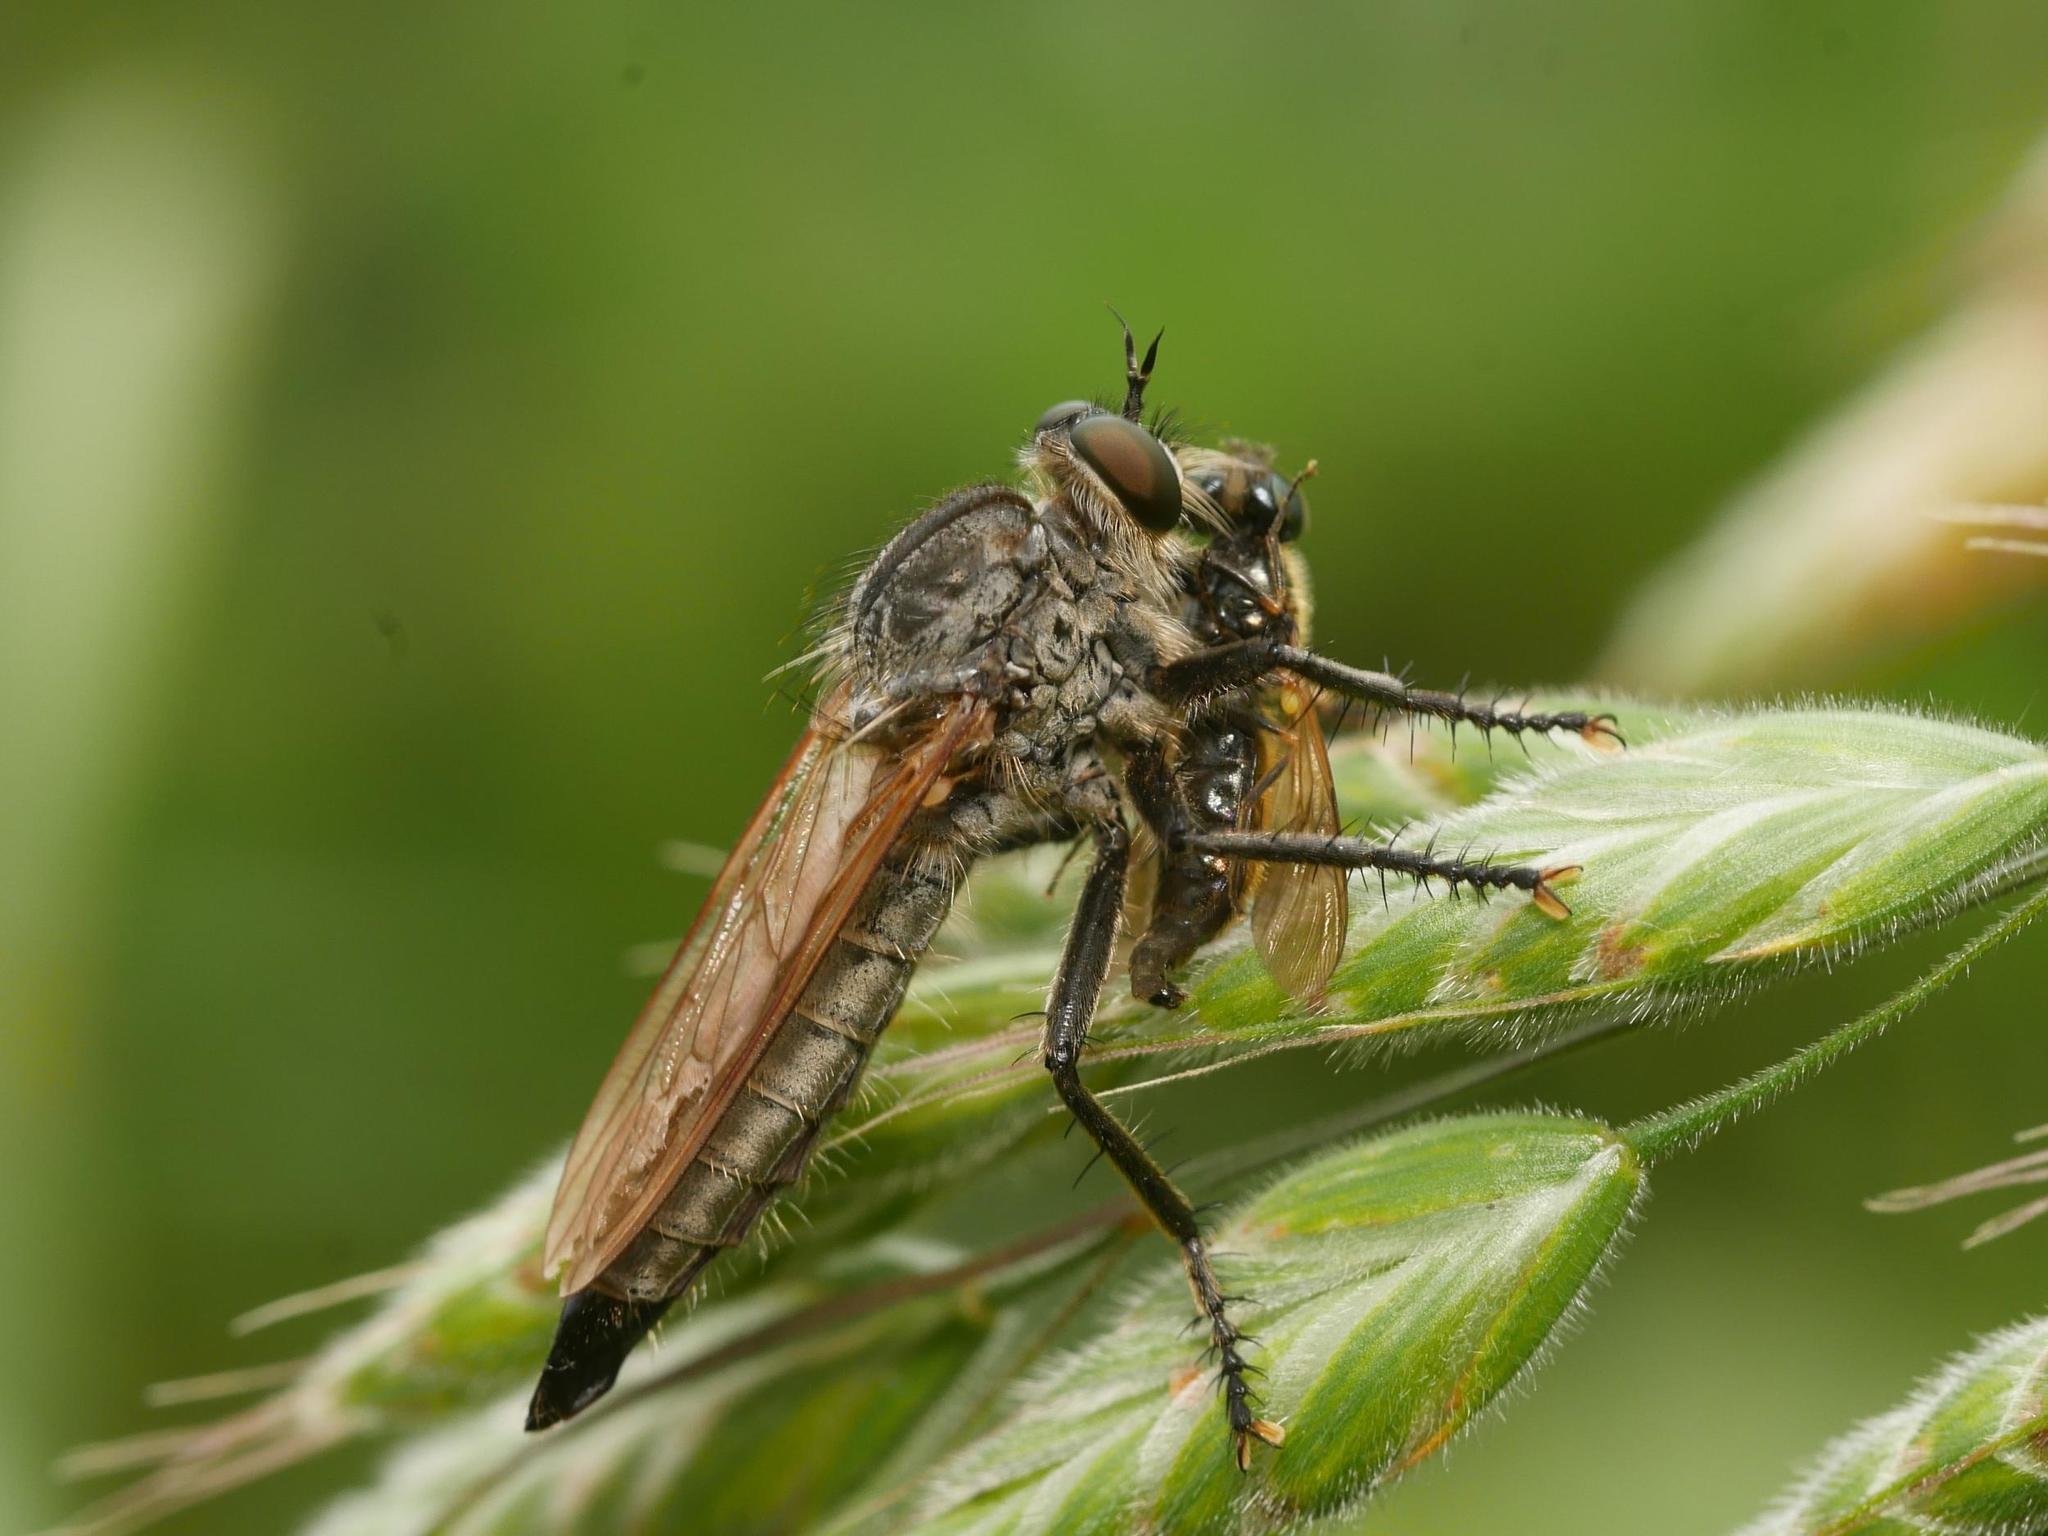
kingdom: Animalia
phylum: Arthropoda
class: Insecta
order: Diptera
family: Asilidae
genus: Eutolmus
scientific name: Eutolmus rufibarbis
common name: Golden-tabbed robberfly
